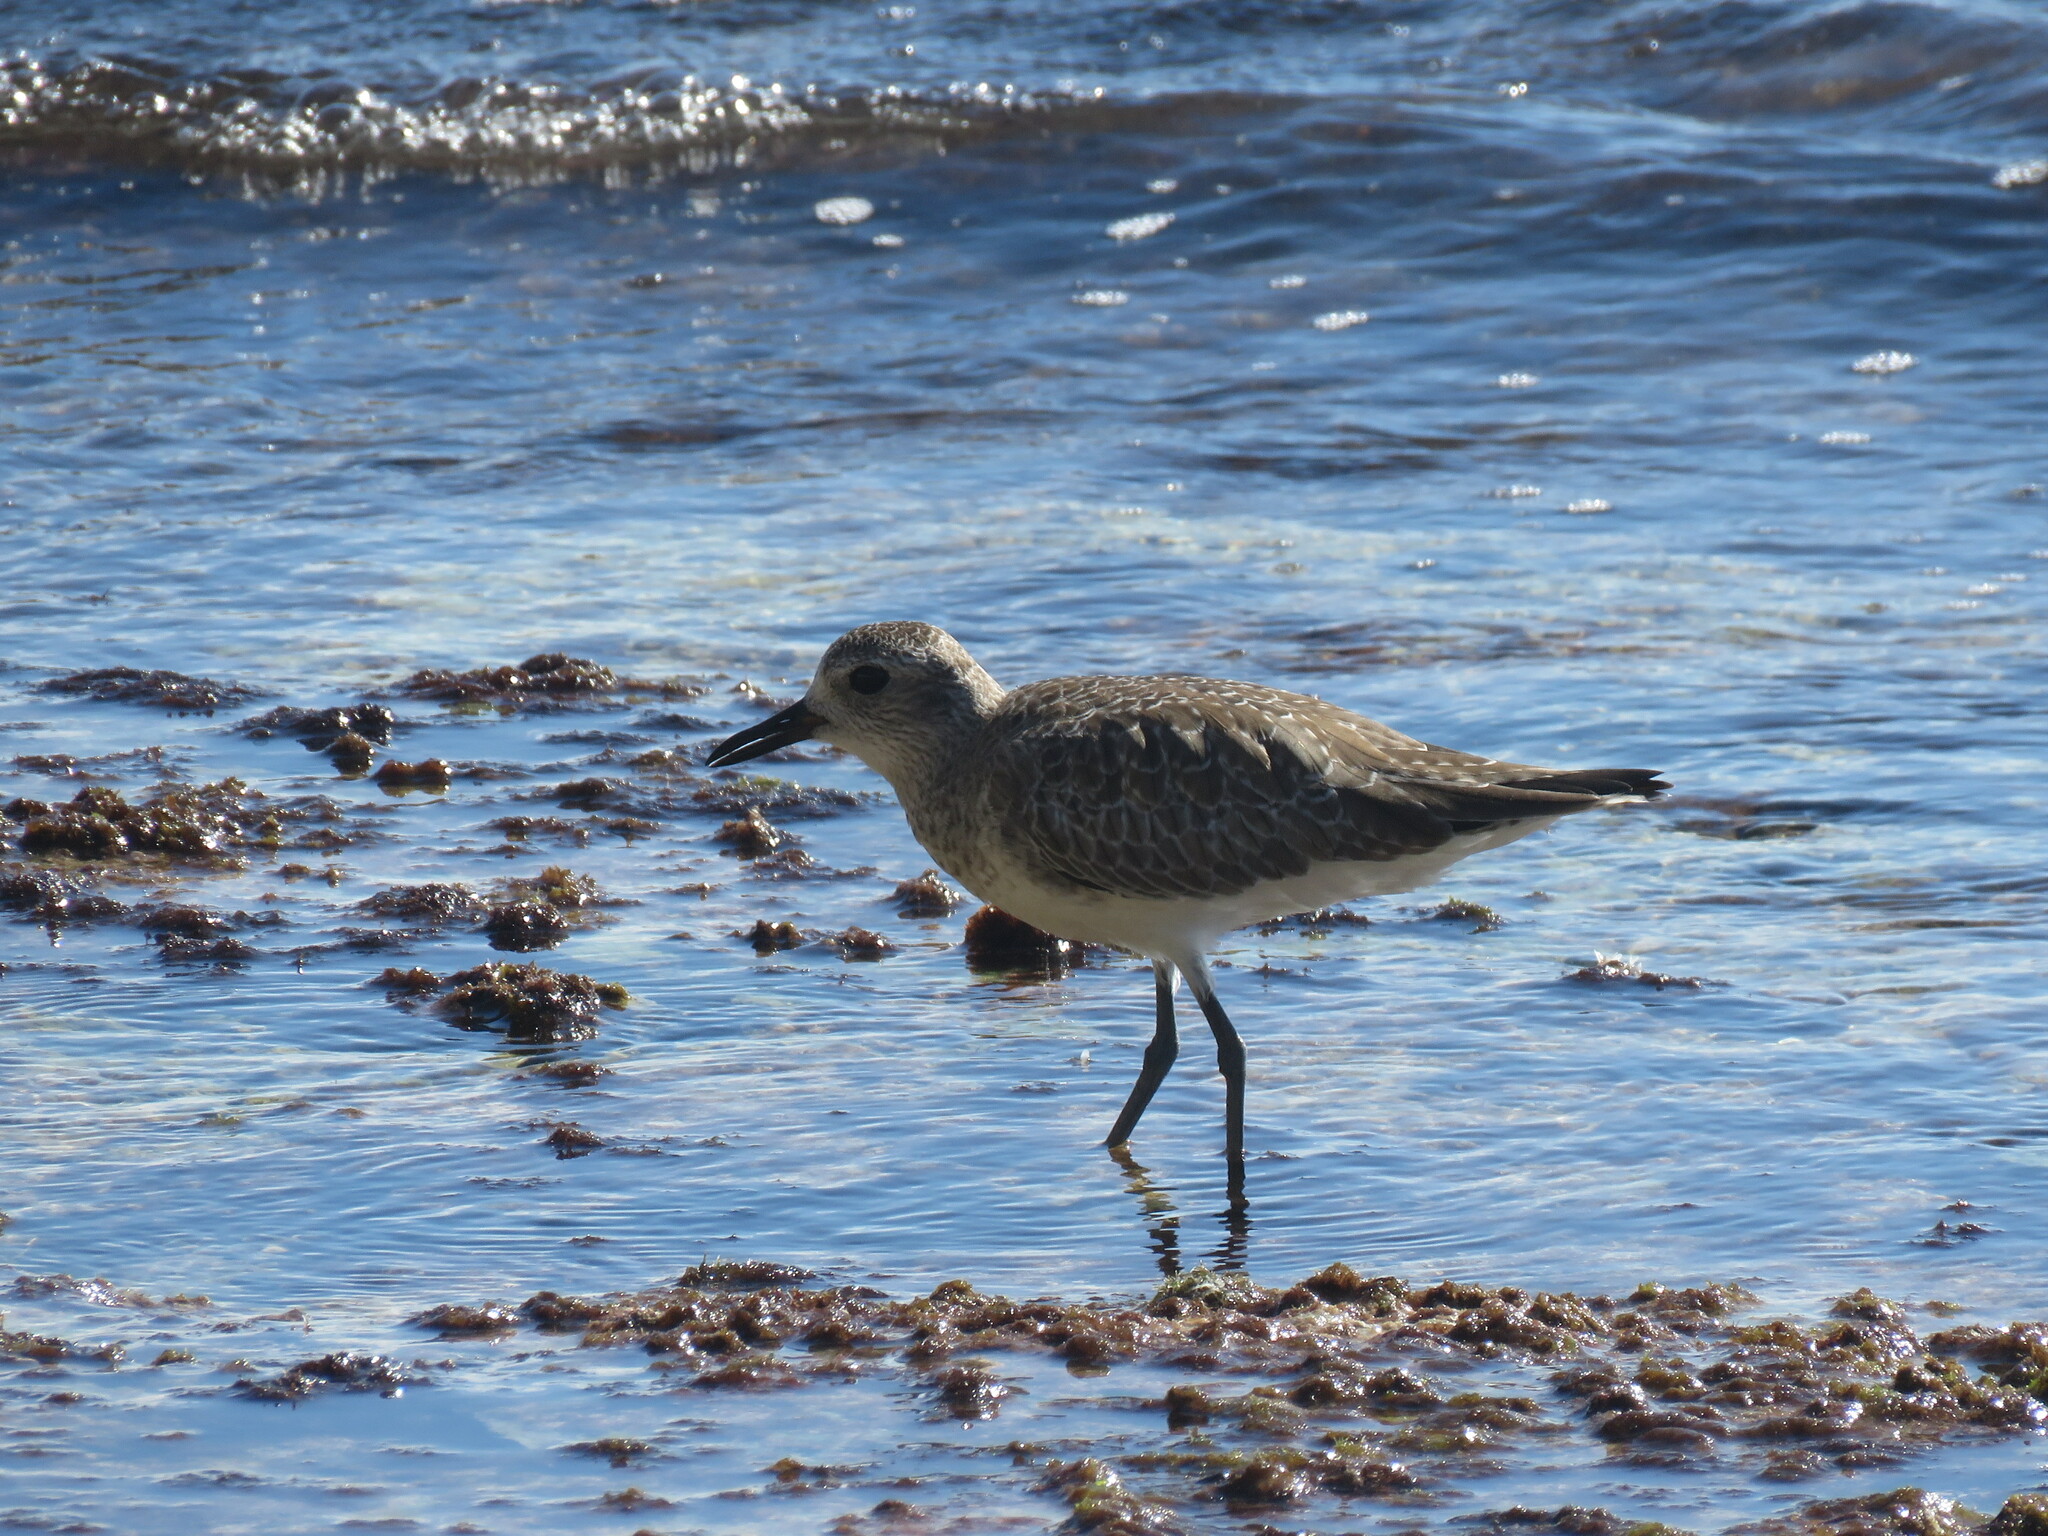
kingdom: Animalia
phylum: Chordata
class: Aves
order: Charadriiformes
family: Charadriidae
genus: Pluvialis
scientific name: Pluvialis squatarola
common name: Grey plover
